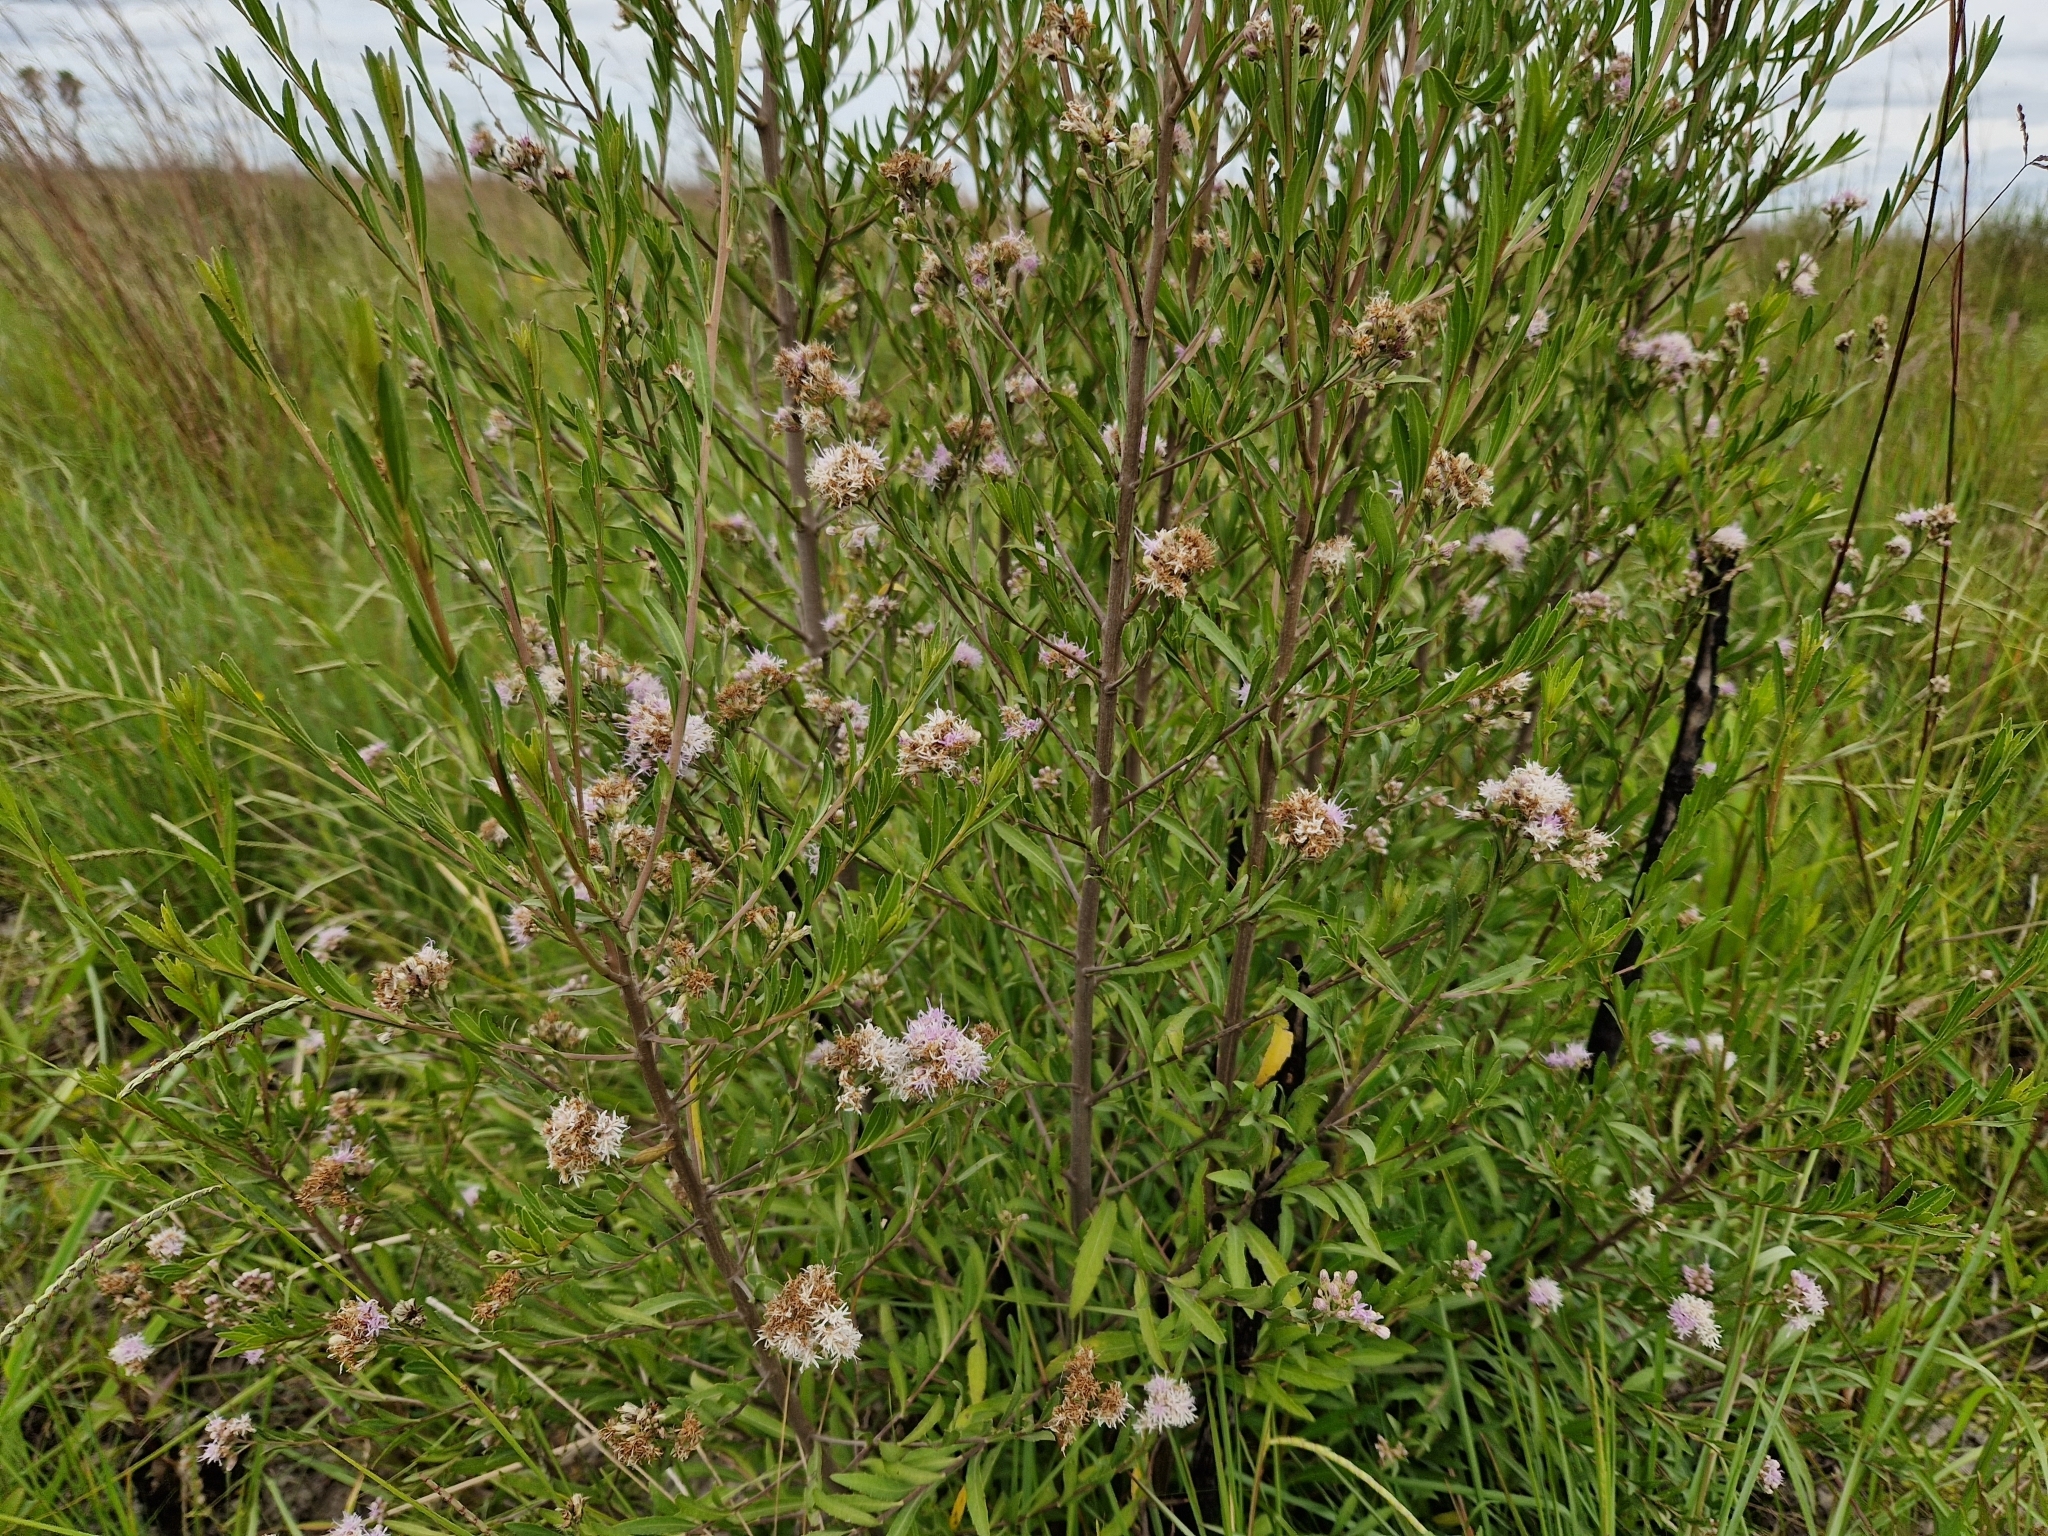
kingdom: Plantae
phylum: Tracheophyta
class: Magnoliopsida
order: Asterales
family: Asteraceae
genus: Vernonanthura
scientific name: Vernonanthura montevidensis
